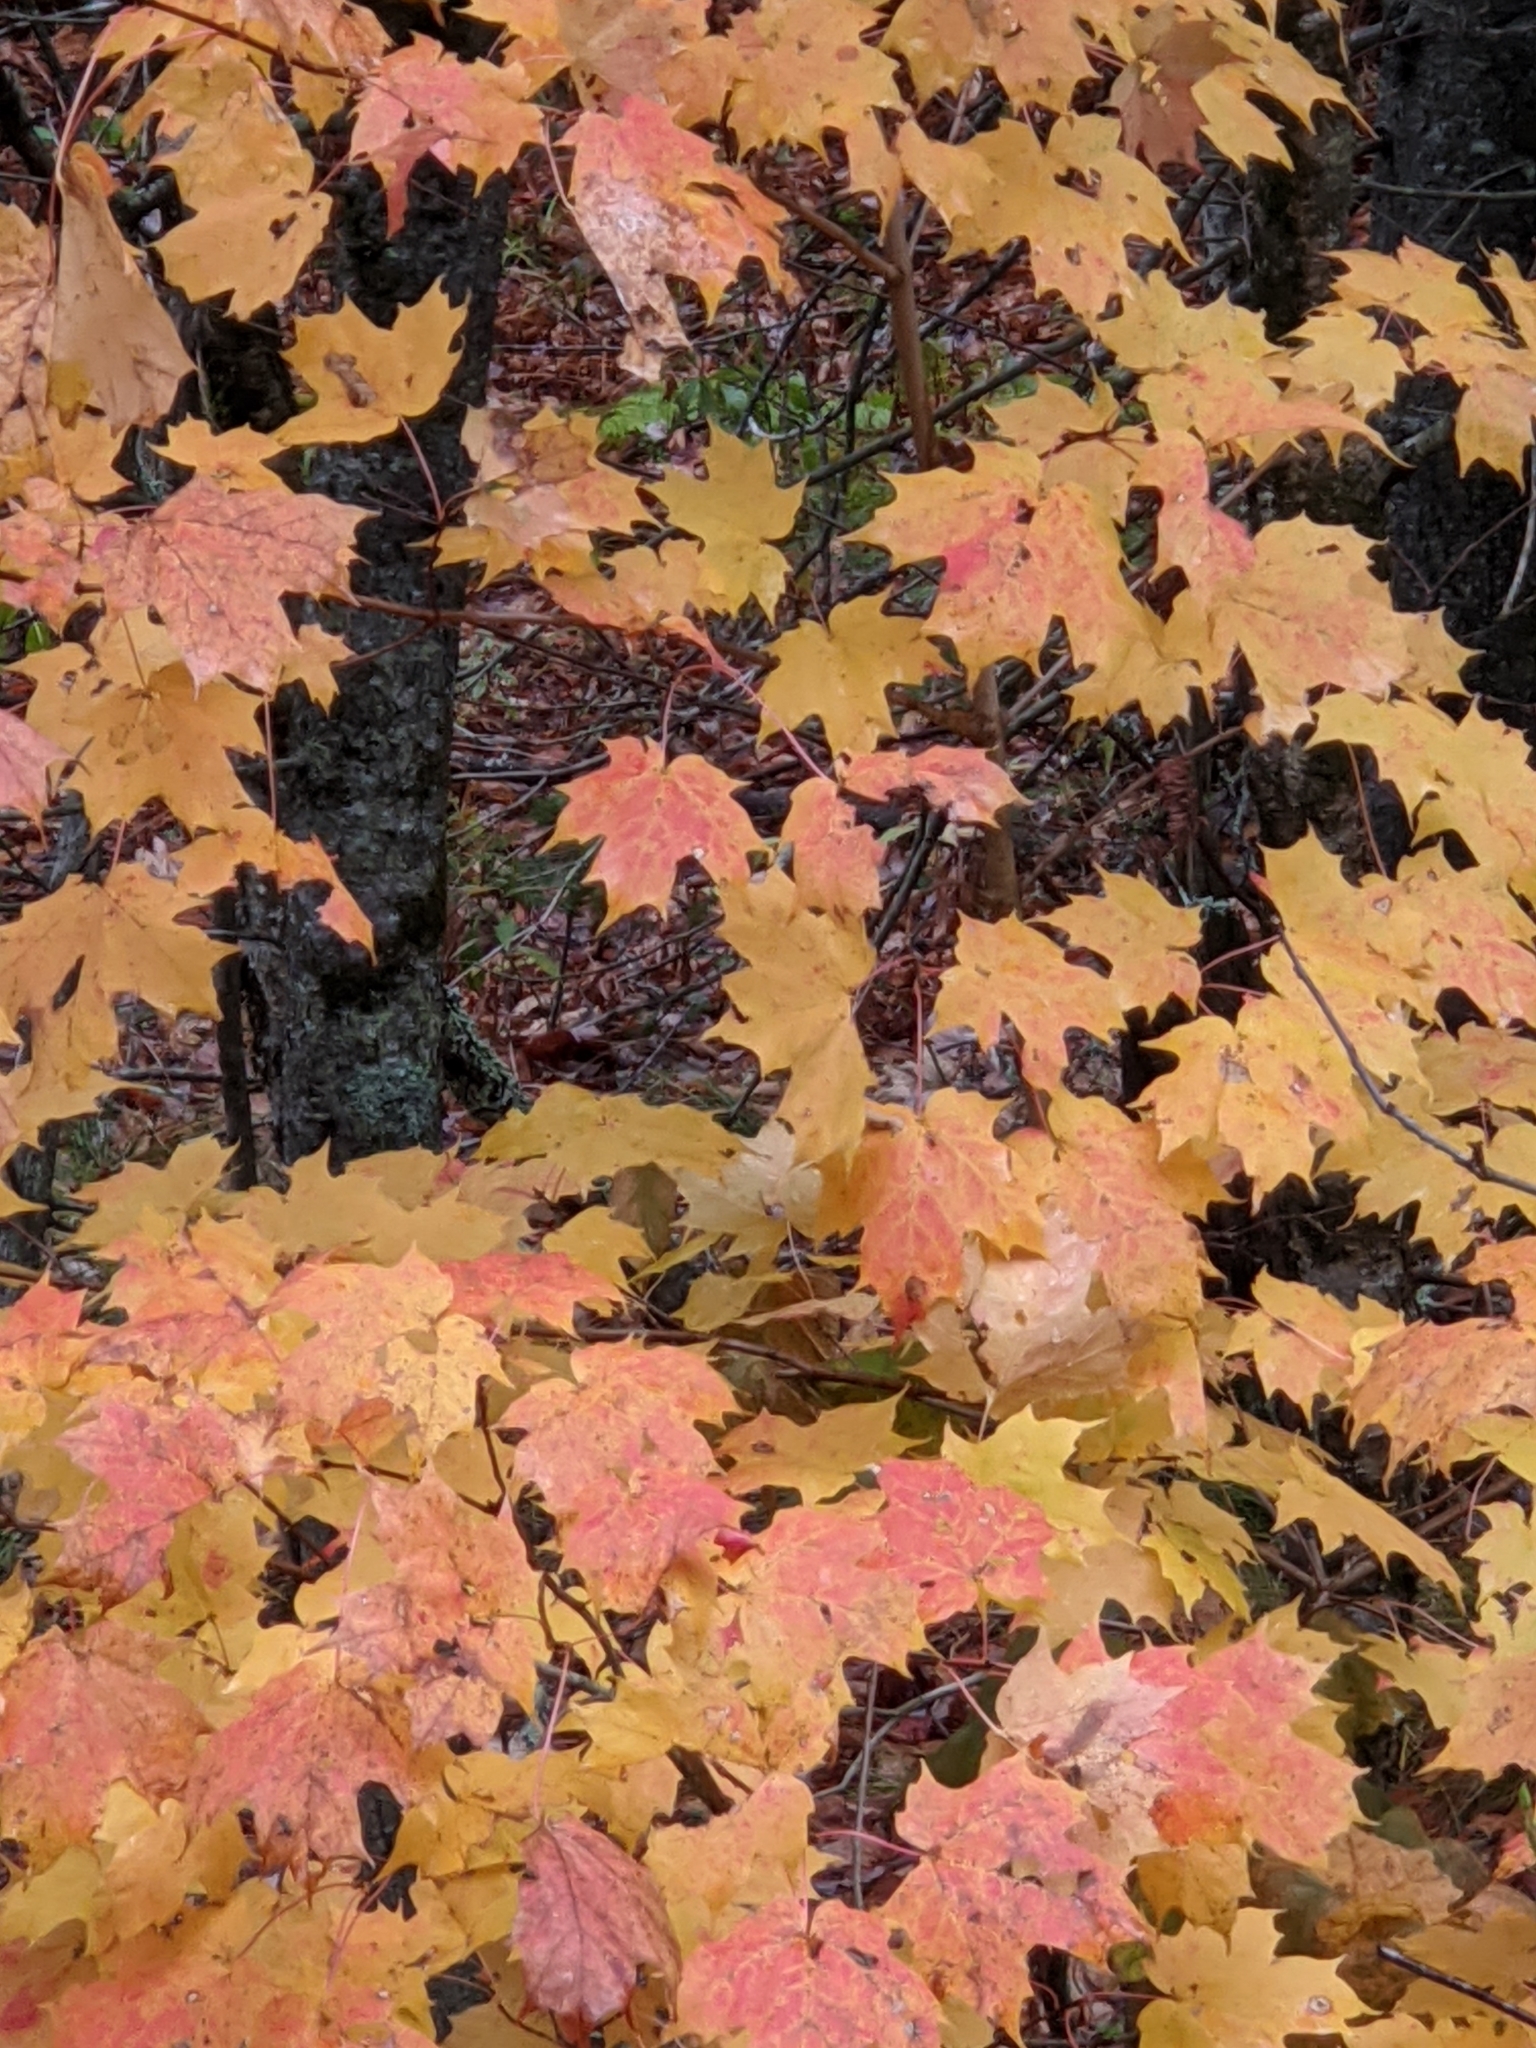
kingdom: Plantae
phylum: Tracheophyta
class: Magnoliopsida
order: Sapindales
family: Sapindaceae
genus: Acer
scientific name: Acer saccharum
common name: Sugar maple
